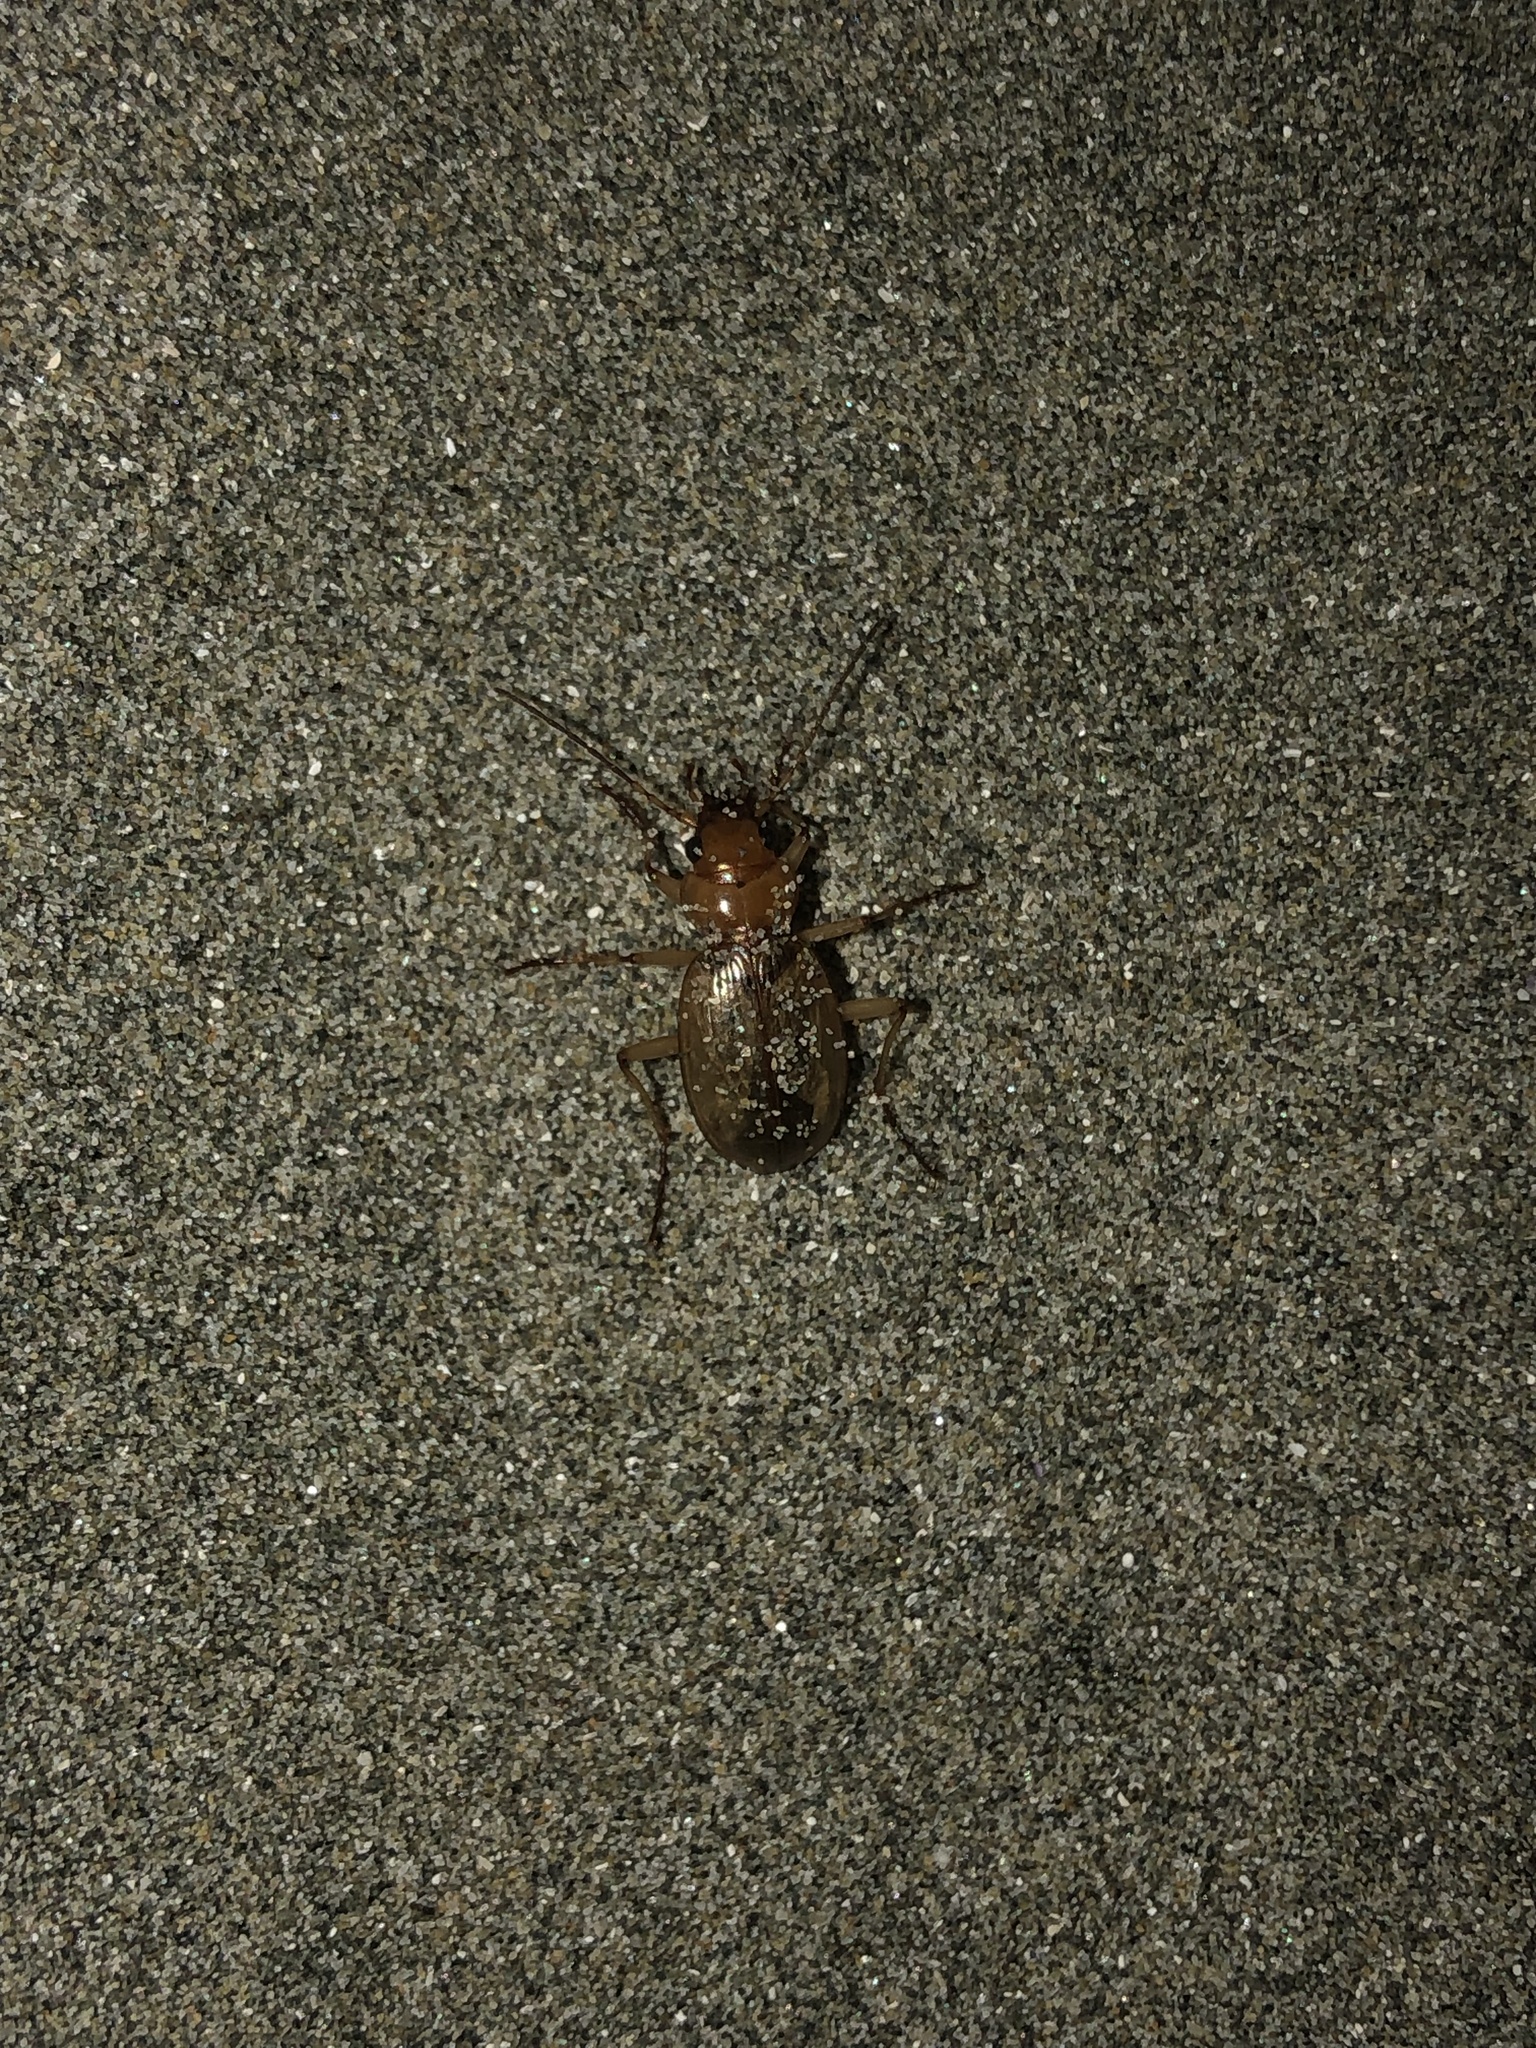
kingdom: Animalia
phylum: Arthropoda
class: Insecta
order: Coleoptera
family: Carabidae
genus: Nebria
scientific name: Nebria diversa
